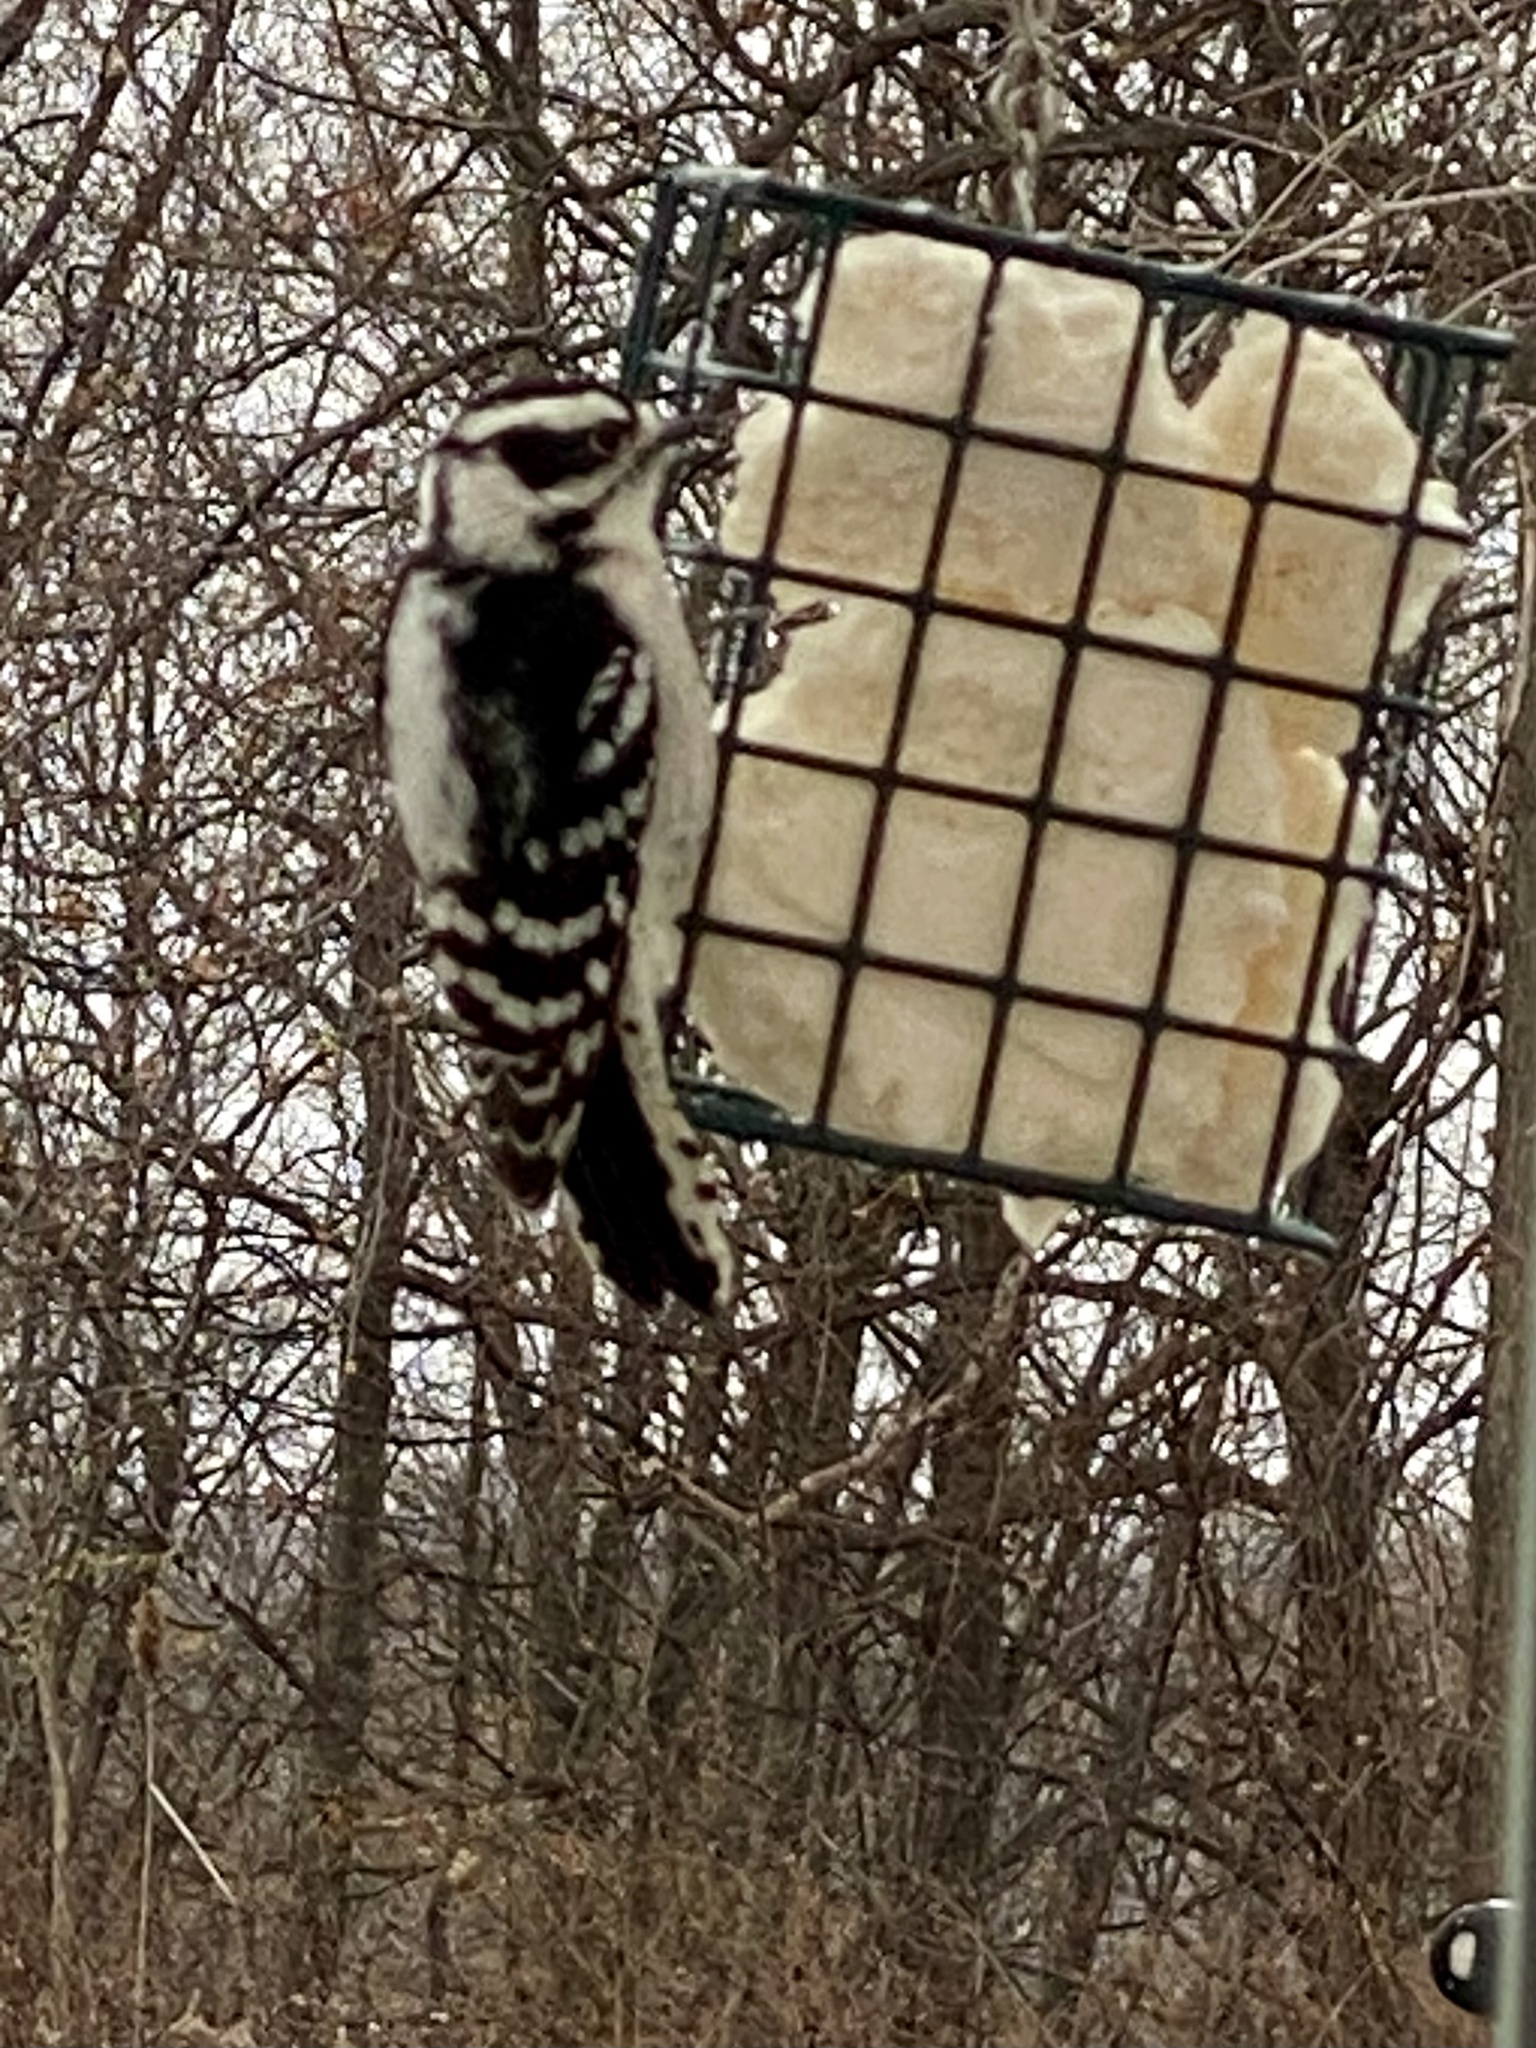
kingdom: Animalia
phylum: Chordata
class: Aves
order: Piciformes
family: Picidae
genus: Dryobates
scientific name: Dryobates pubescens
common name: Downy woodpecker
